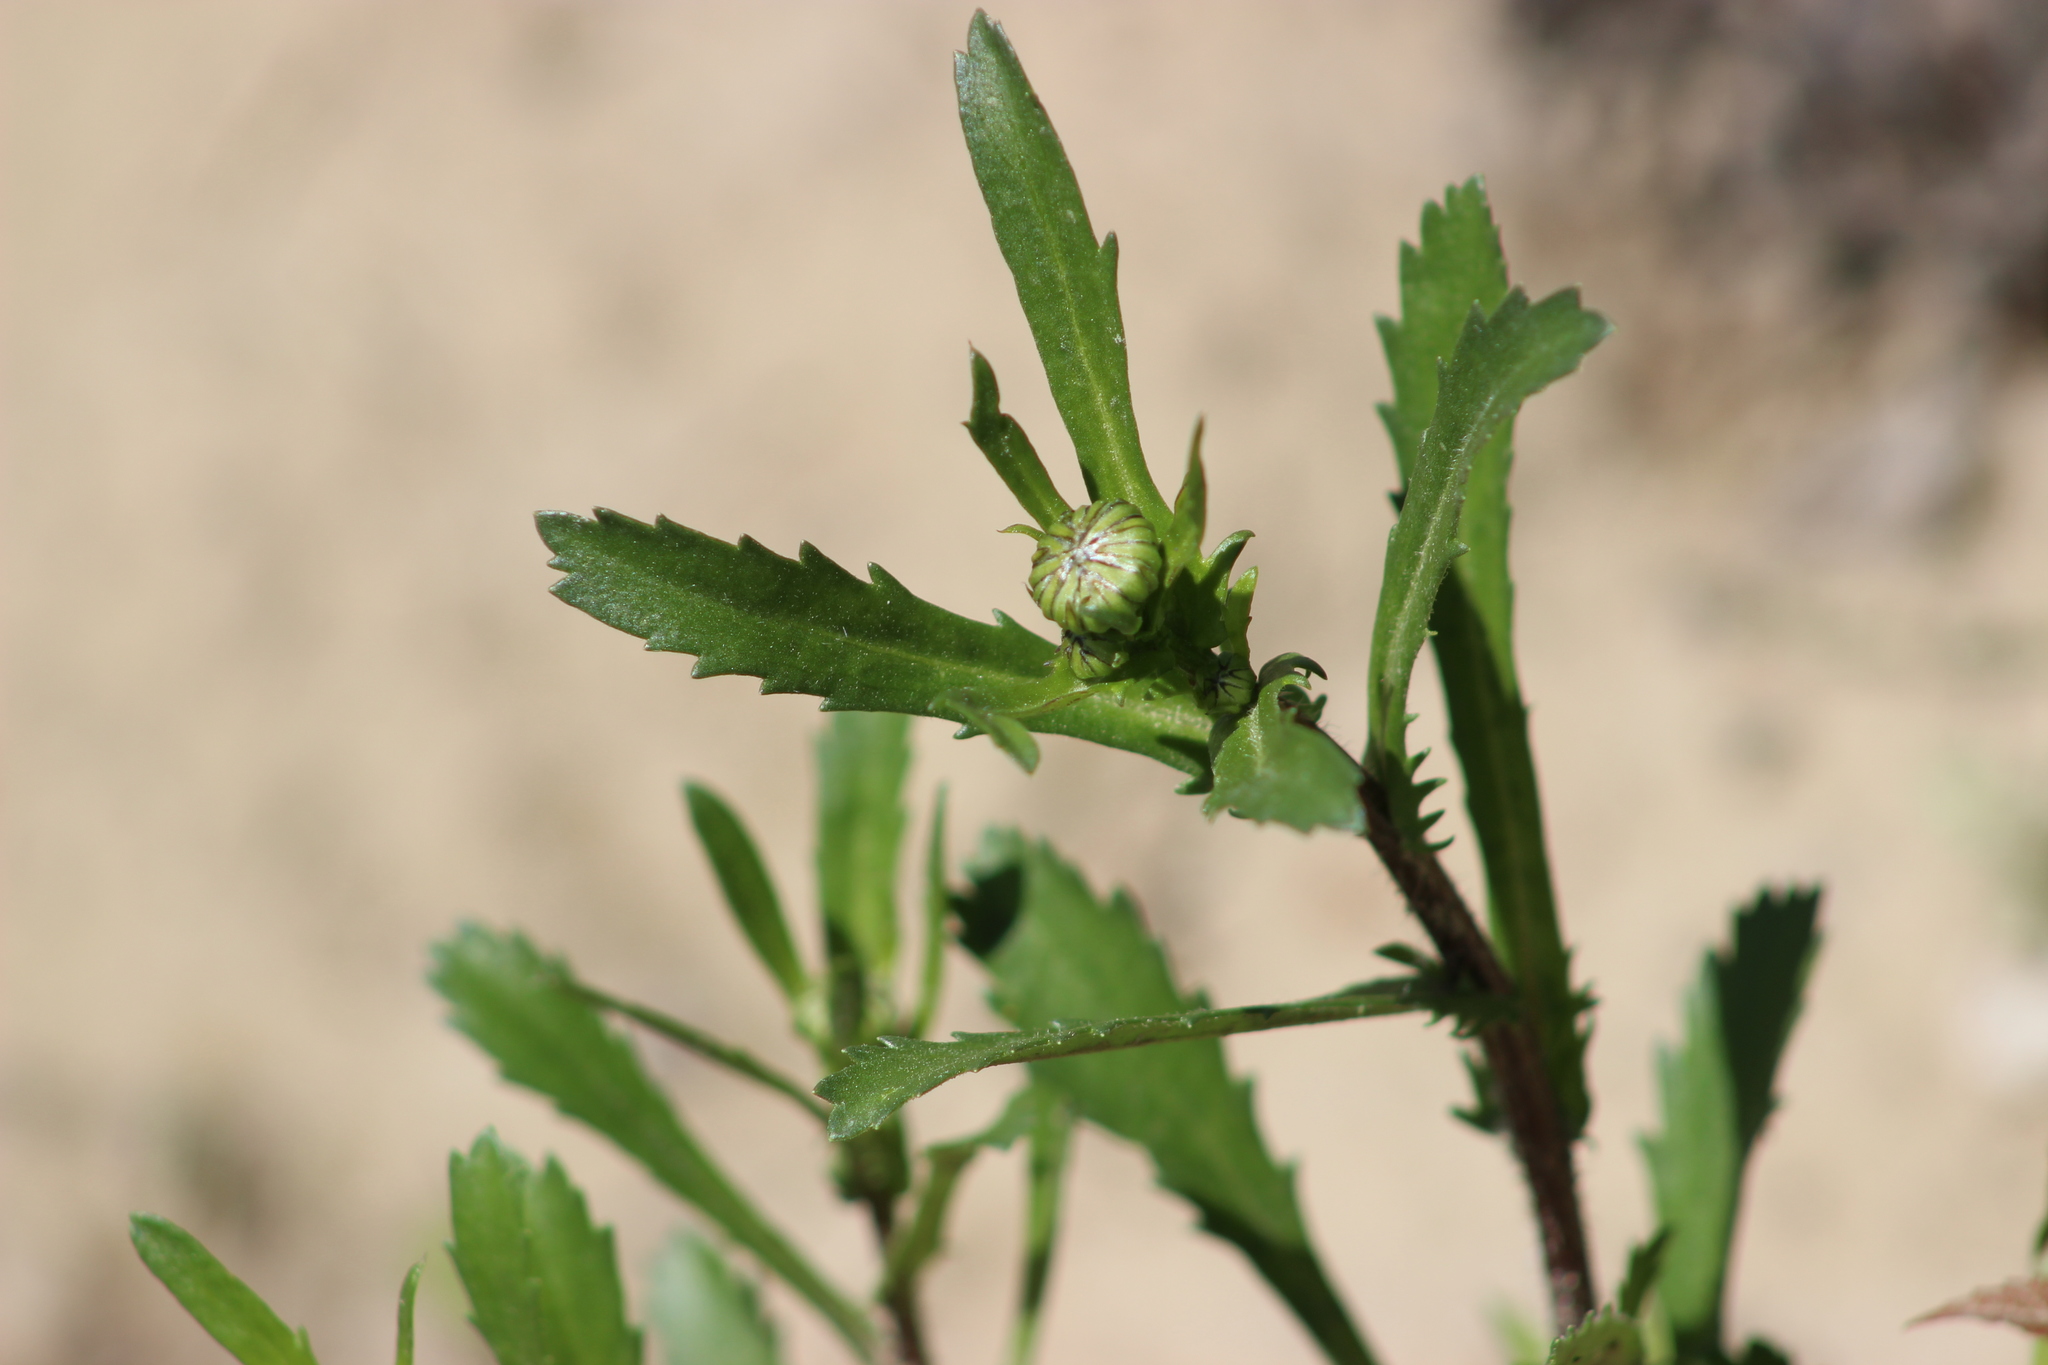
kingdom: Plantae
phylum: Tracheophyta
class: Magnoliopsida
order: Asterales
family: Asteraceae
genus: Leucanthemum
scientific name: Leucanthemum ircutianum
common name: Daisy
